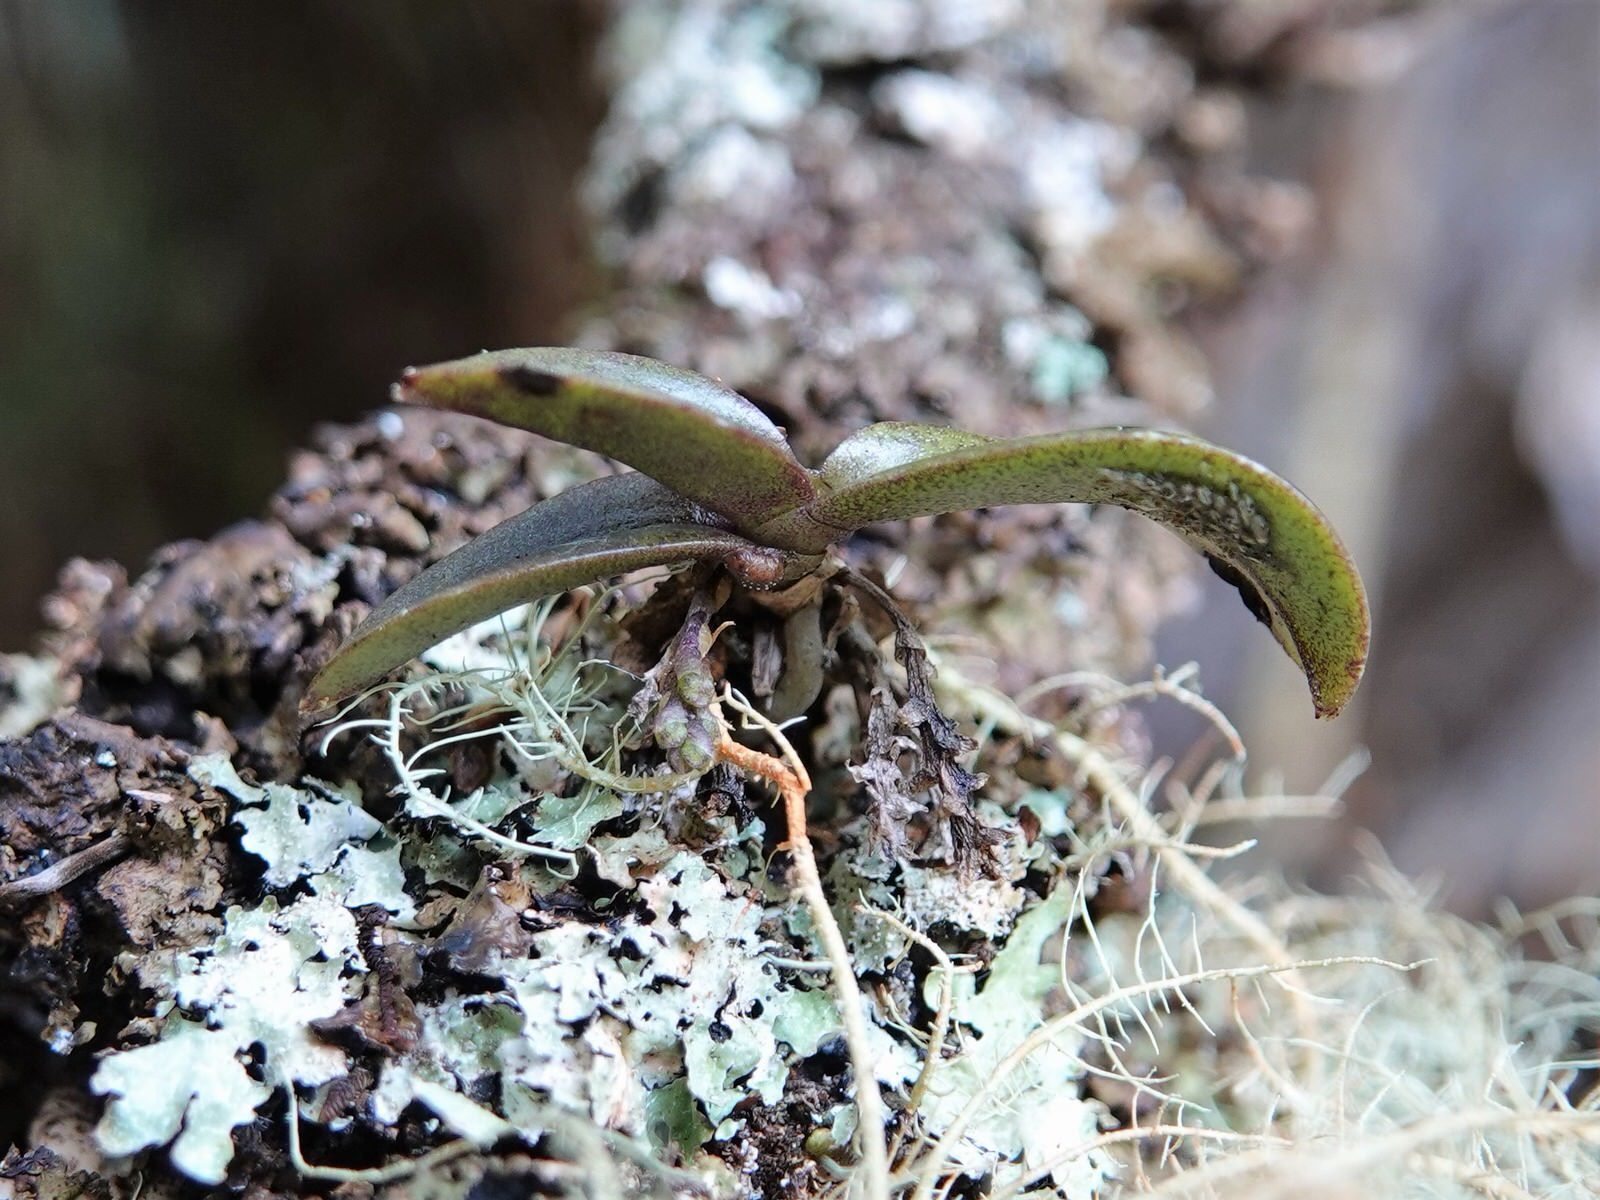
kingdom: Plantae
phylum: Tracheophyta
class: Liliopsida
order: Asparagales
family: Orchidaceae
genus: Drymoanthus
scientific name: Drymoanthus adversus
